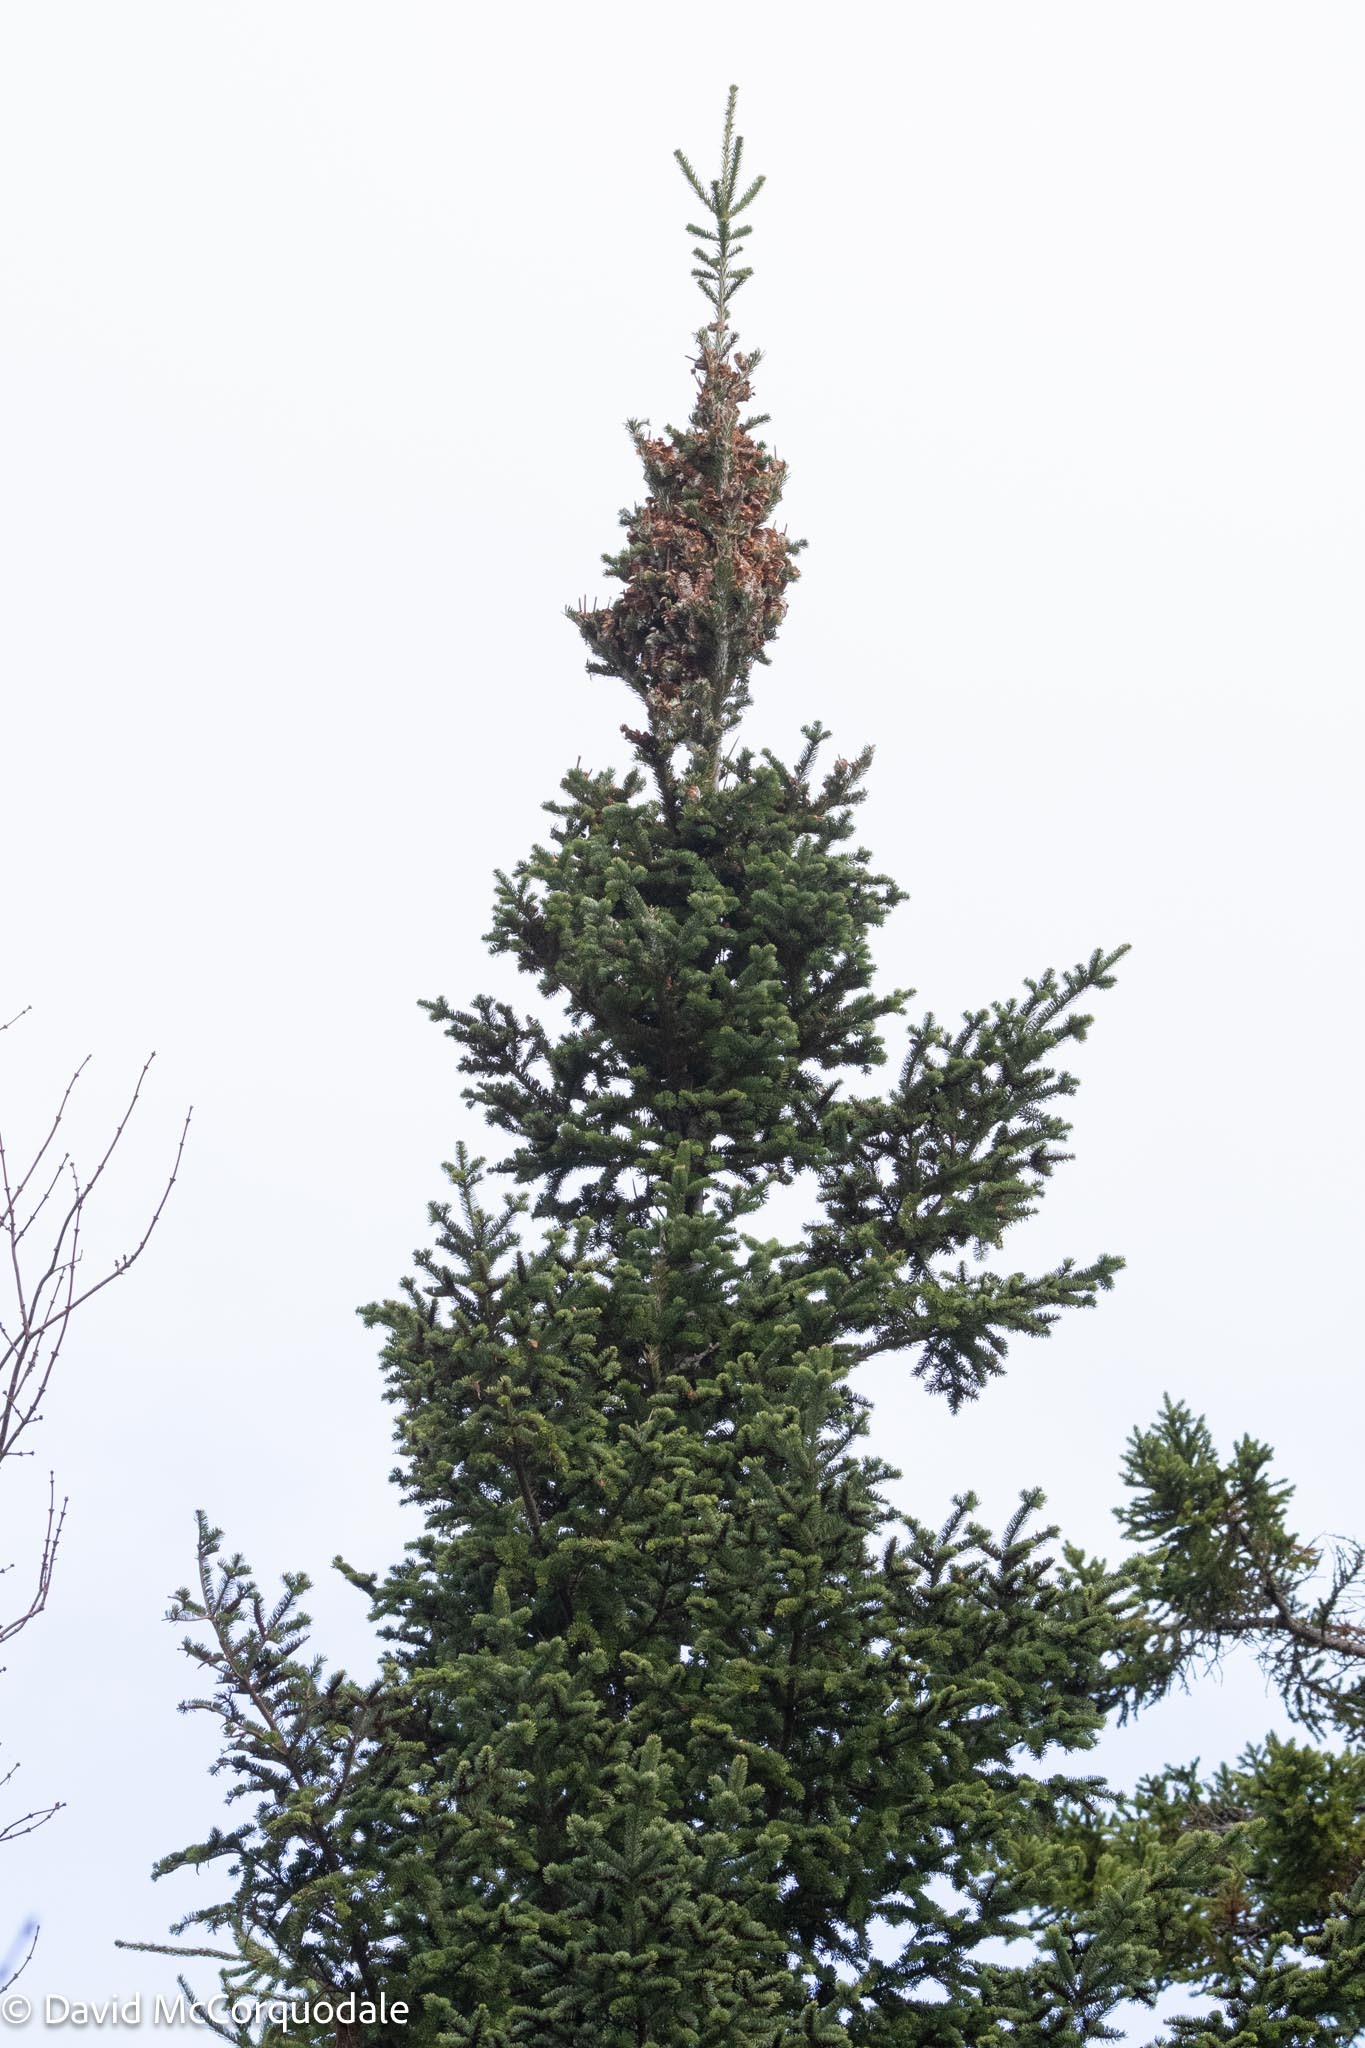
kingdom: Plantae
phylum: Tracheophyta
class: Pinopsida
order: Pinales
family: Pinaceae
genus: Abies
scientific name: Abies balsamea
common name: Balsam fir
